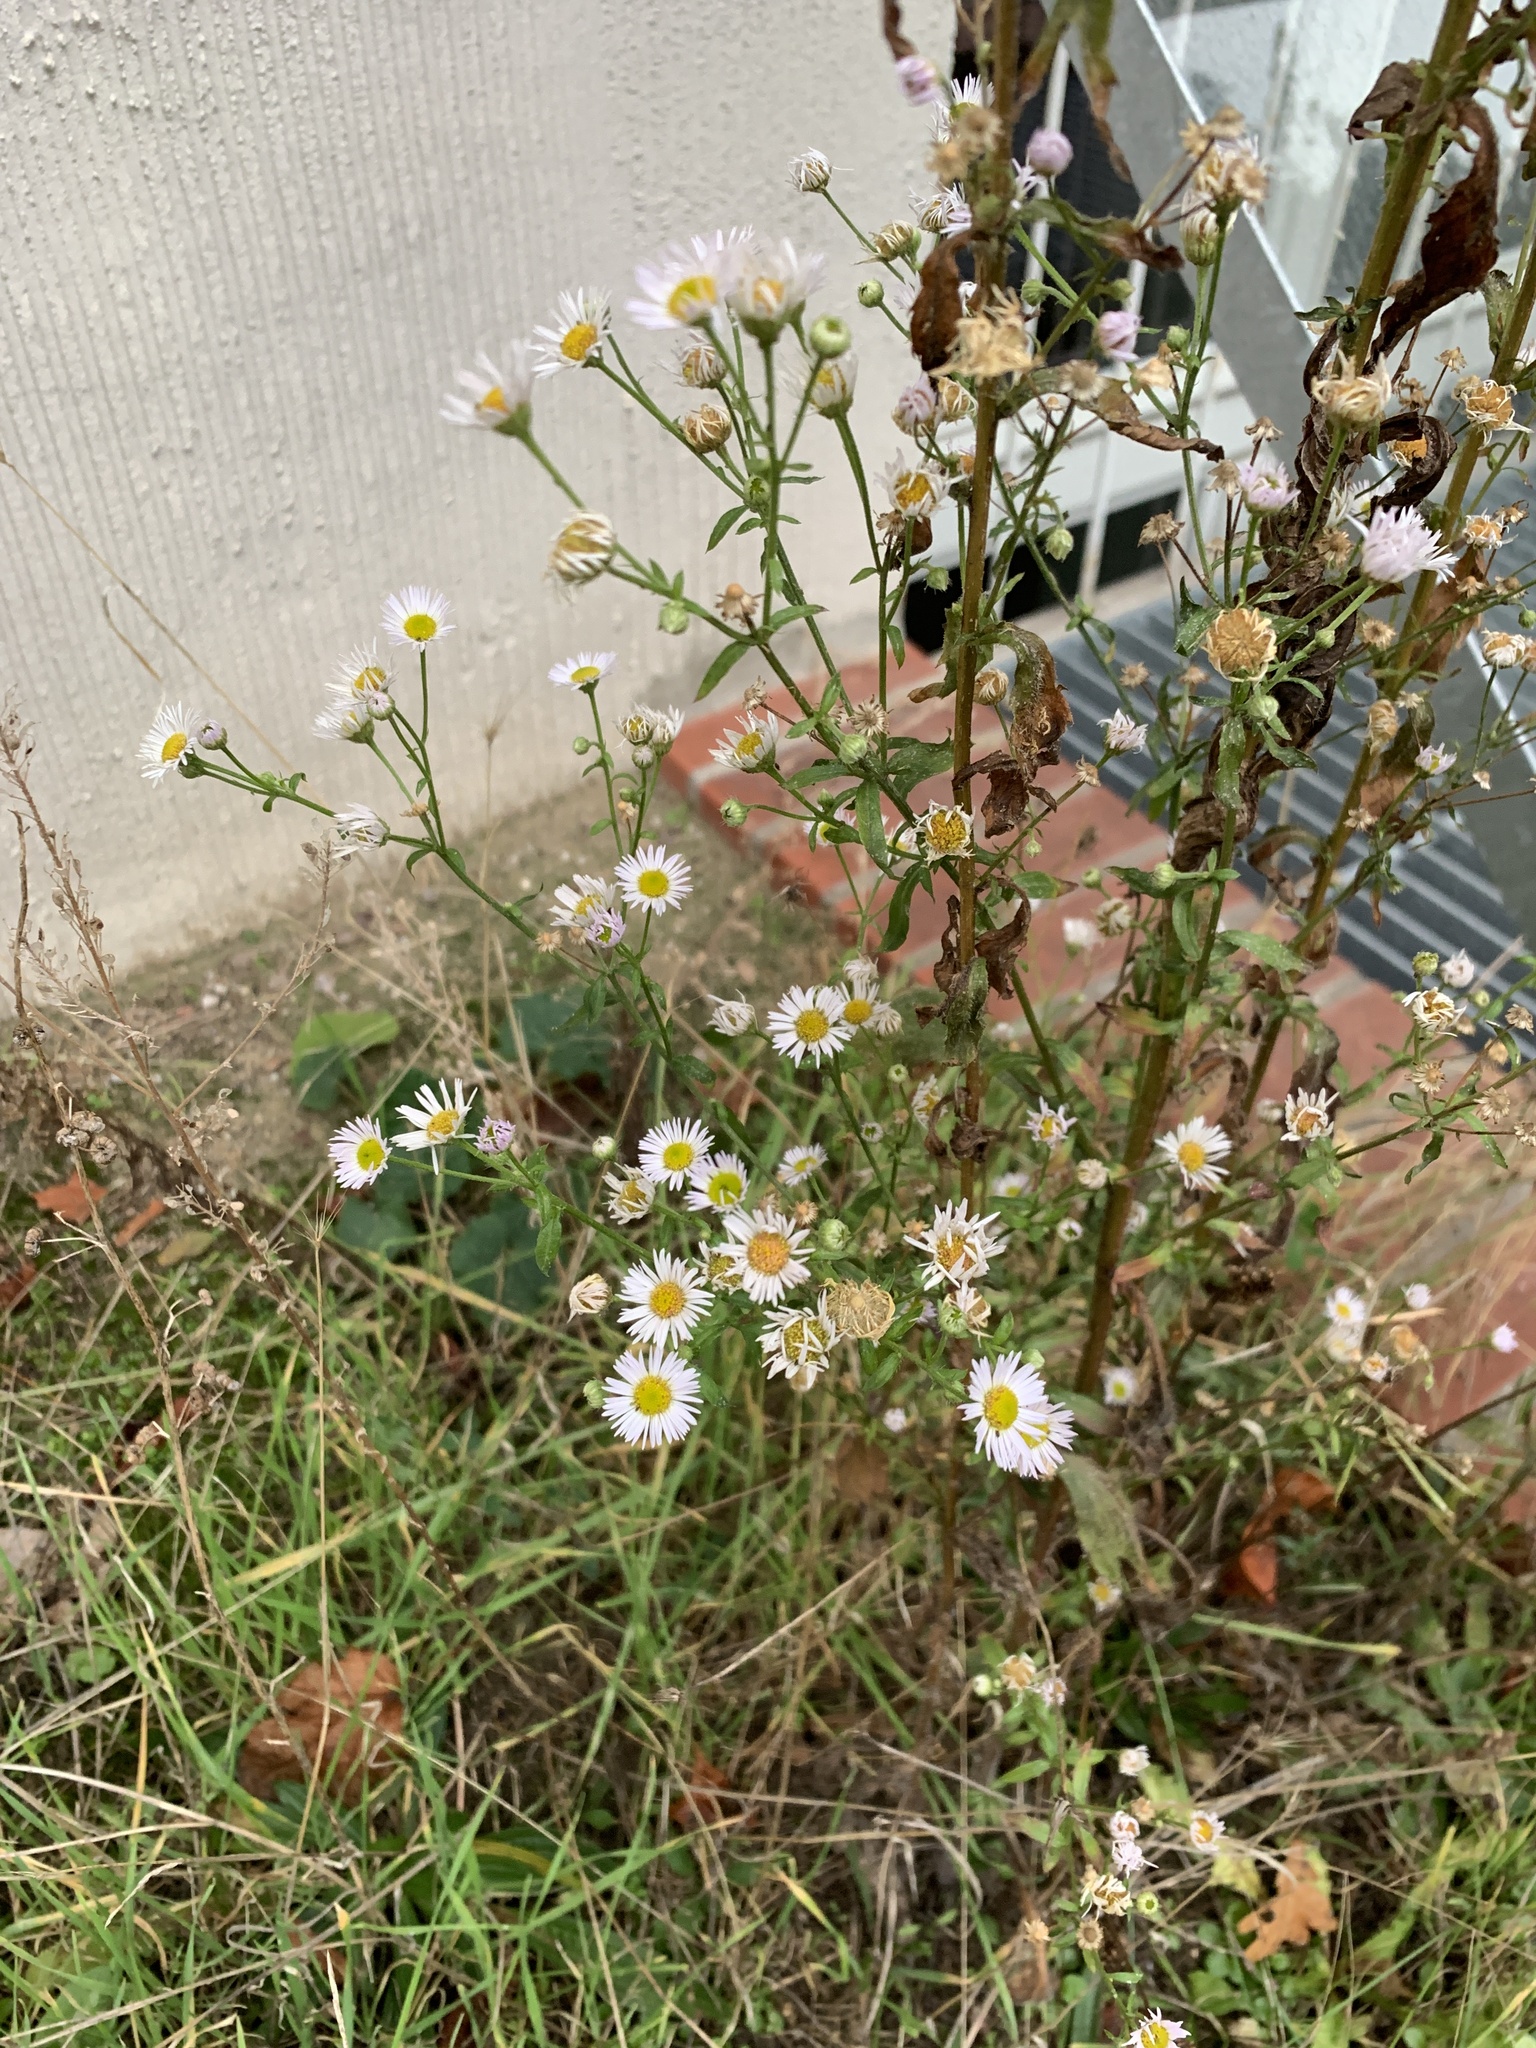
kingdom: Plantae
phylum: Tracheophyta
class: Magnoliopsida
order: Asterales
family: Asteraceae
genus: Erigeron
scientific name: Erigeron annuus
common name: Tall fleabane
